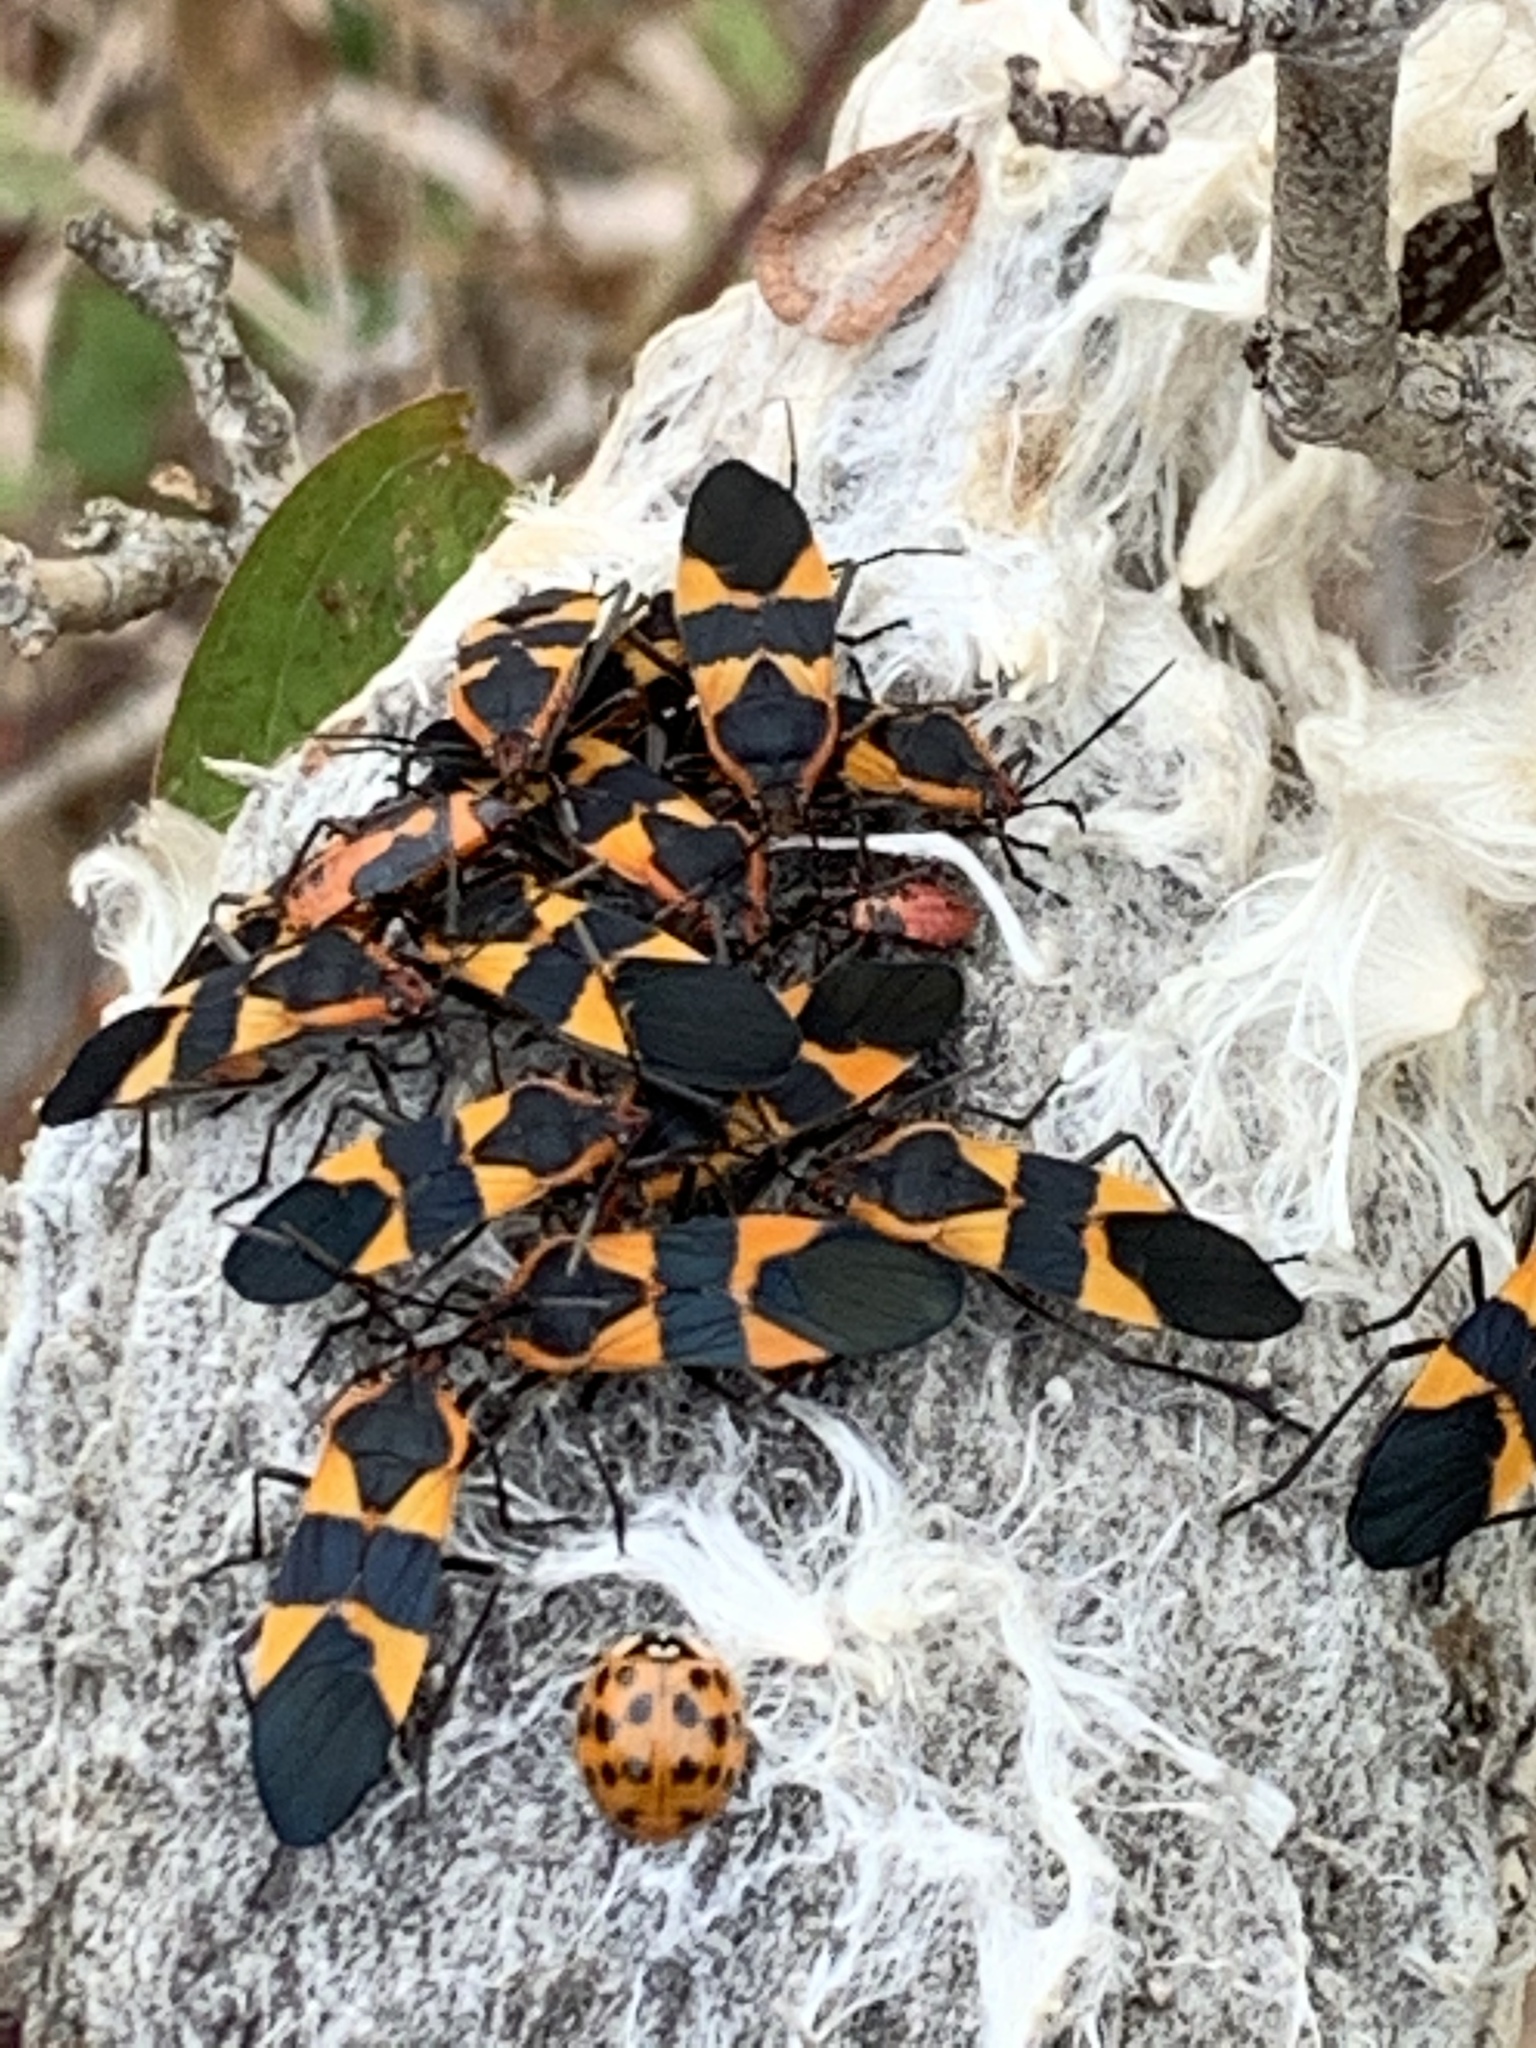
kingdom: Animalia
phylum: Arthropoda
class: Insecta
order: Hemiptera
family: Lygaeidae
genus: Oncopeltus
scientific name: Oncopeltus fasciatus
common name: Large milkweed bug
